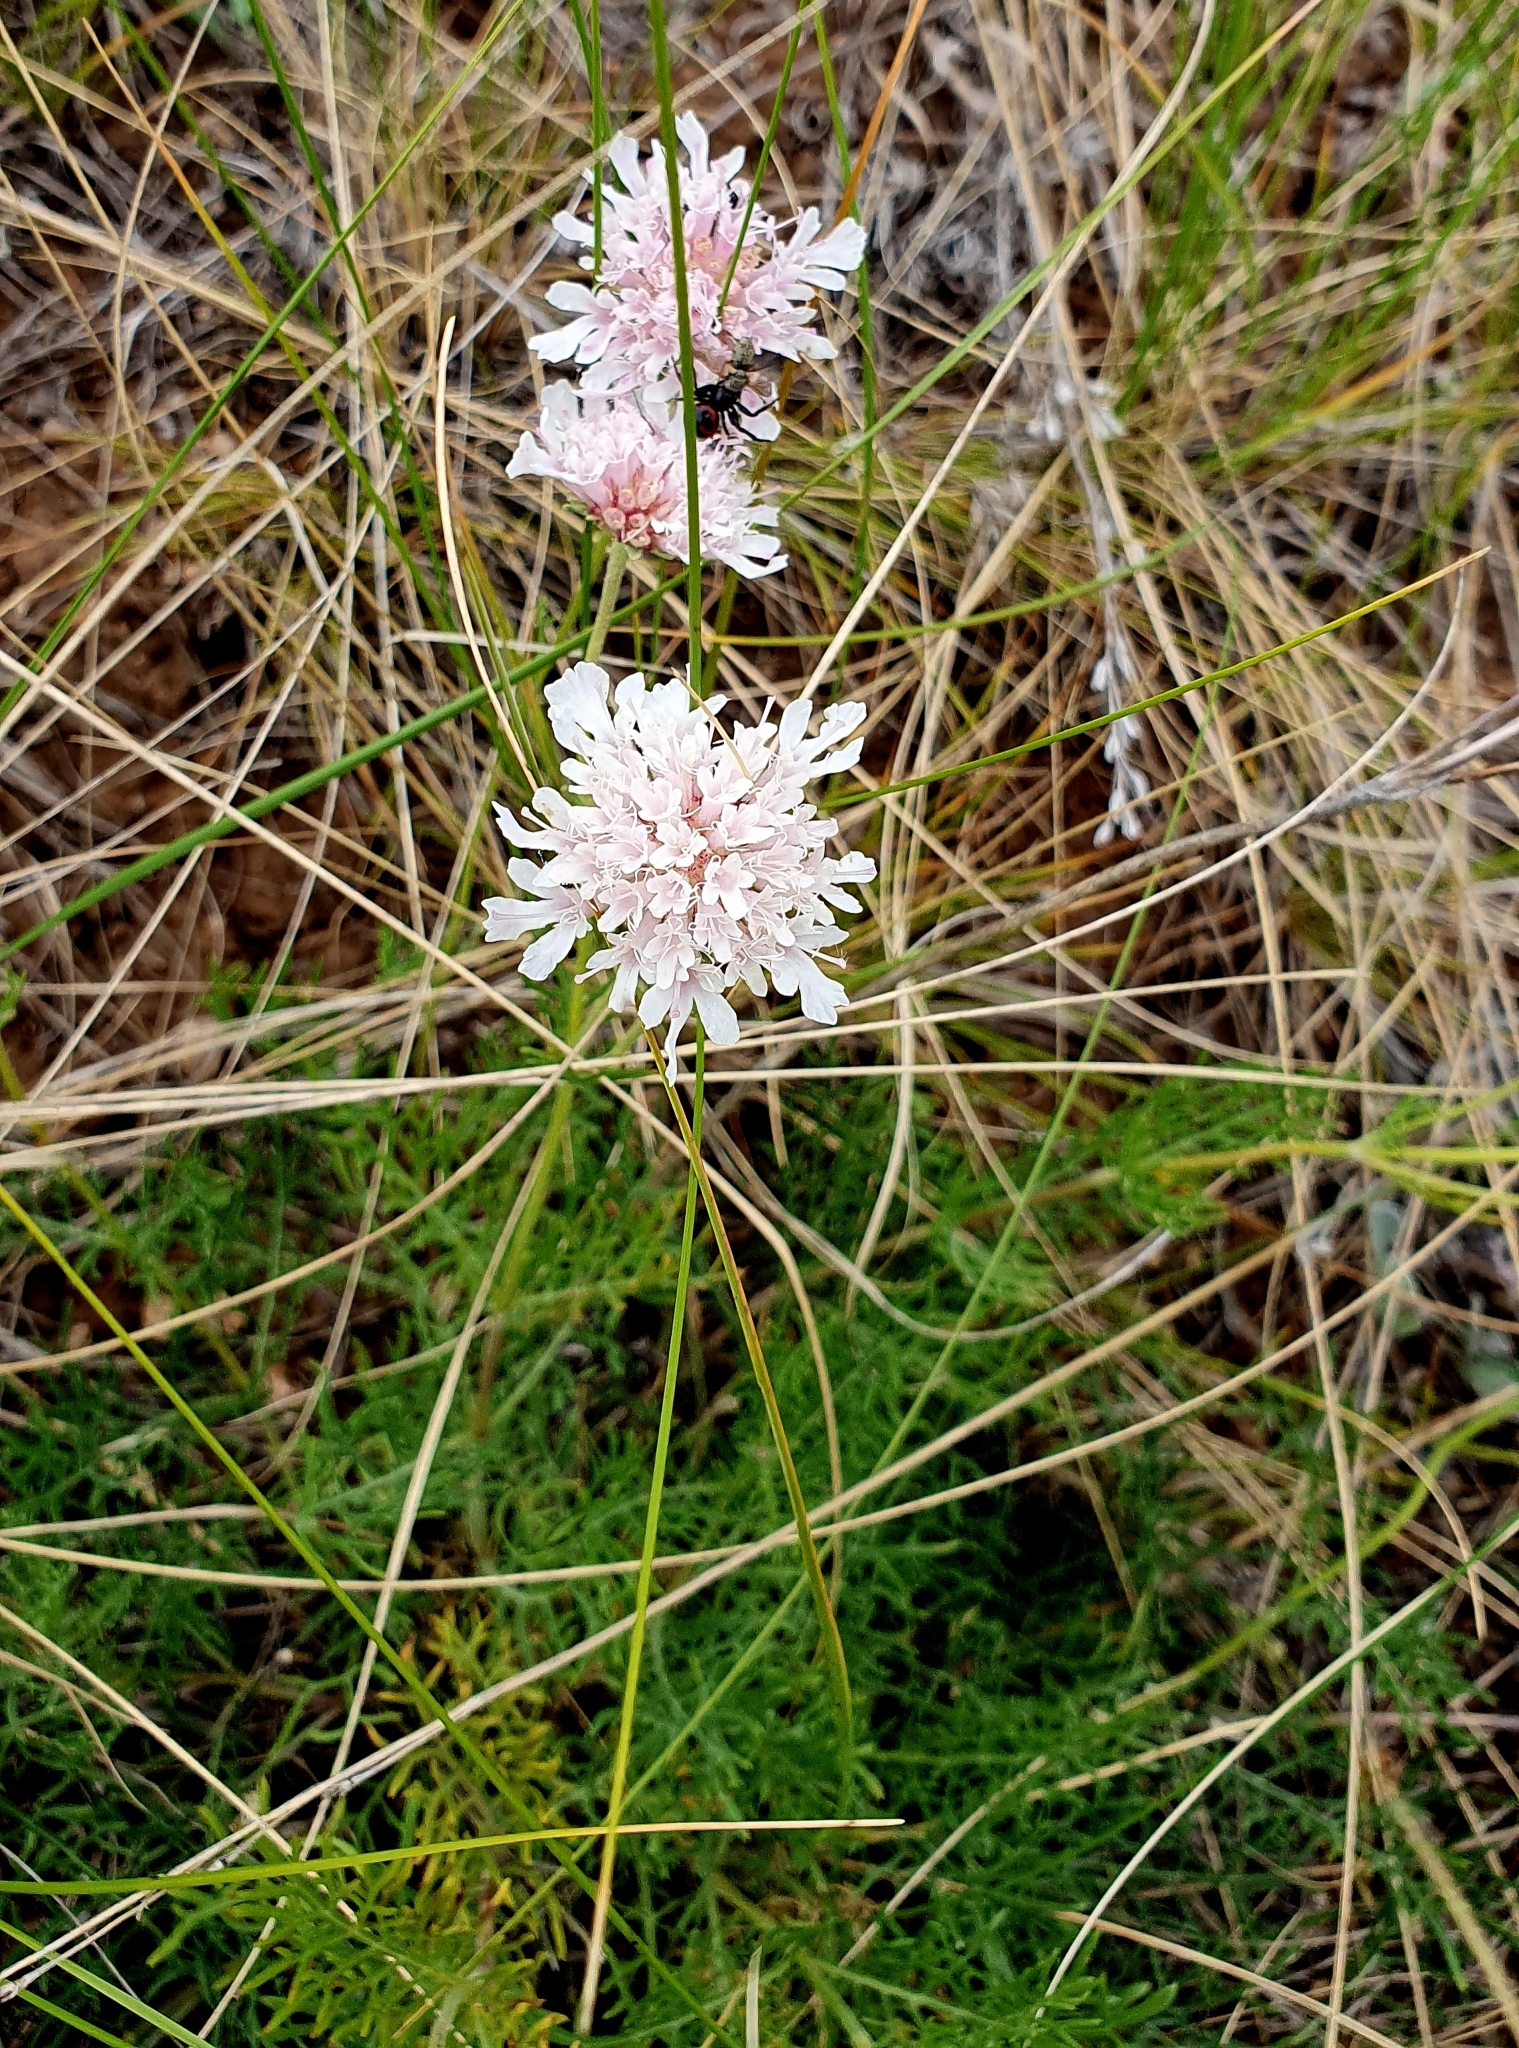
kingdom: Plantae
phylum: Tracheophyta
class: Magnoliopsida
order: Dipsacales
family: Caprifoliaceae
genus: Lomelosia
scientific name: Lomelosia isetensis
